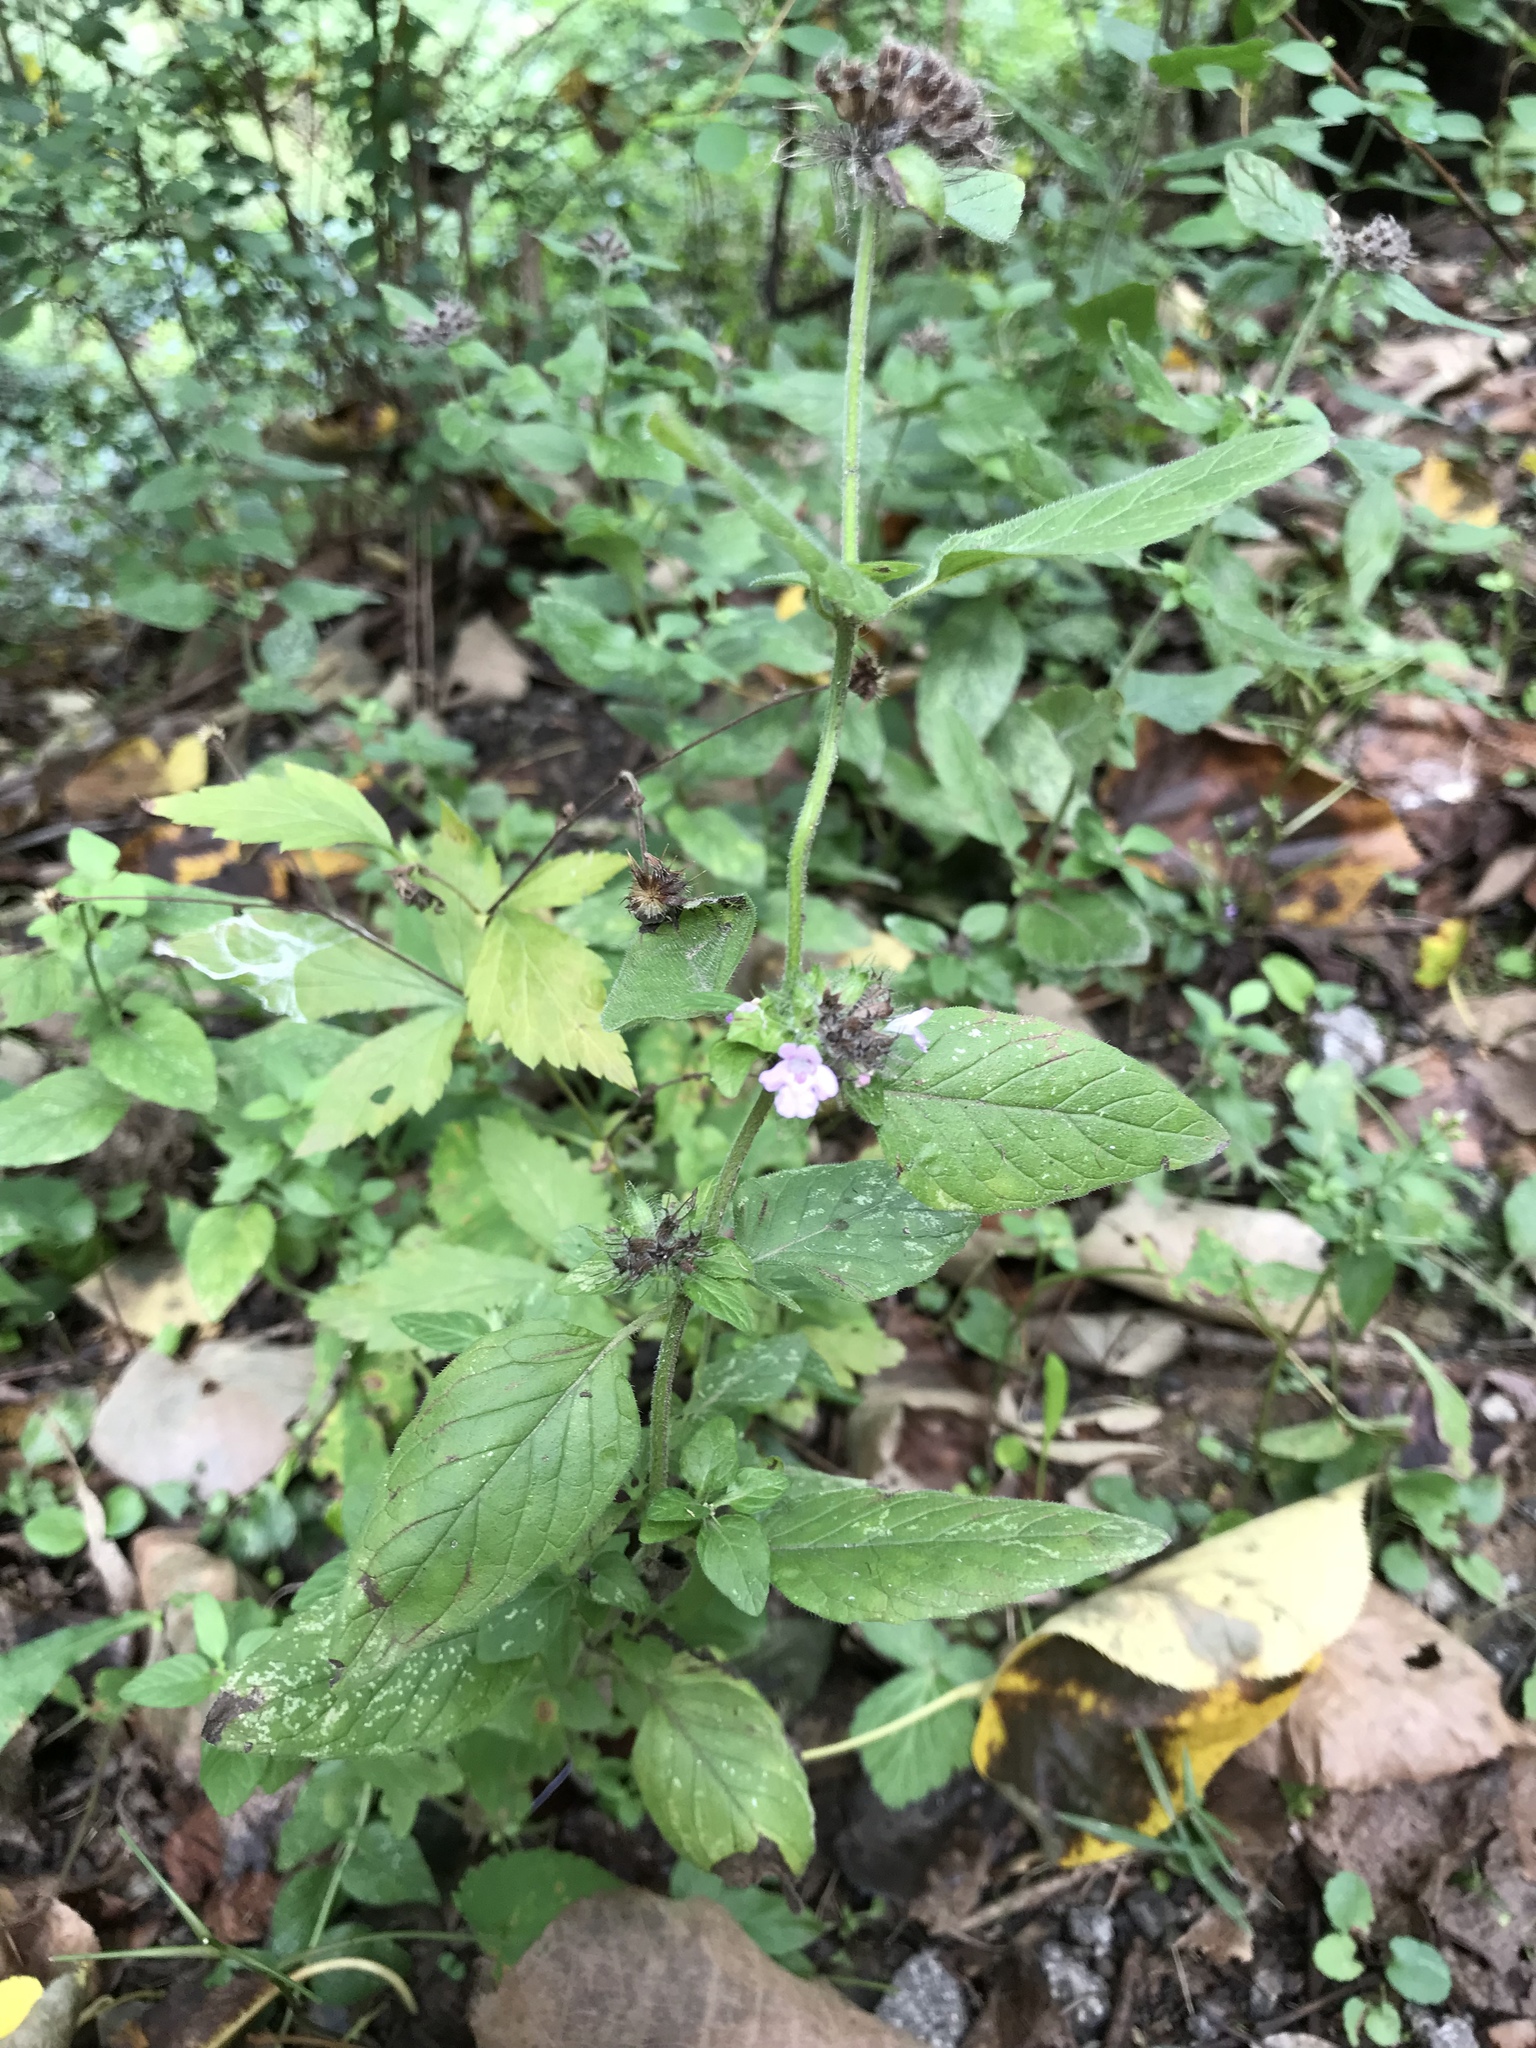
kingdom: Plantae
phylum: Tracheophyta
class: Magnoliopsida
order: Lamiales
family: Lamiaceae
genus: Clinopodium
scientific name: Clinopodium vulgare
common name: Wild basil
